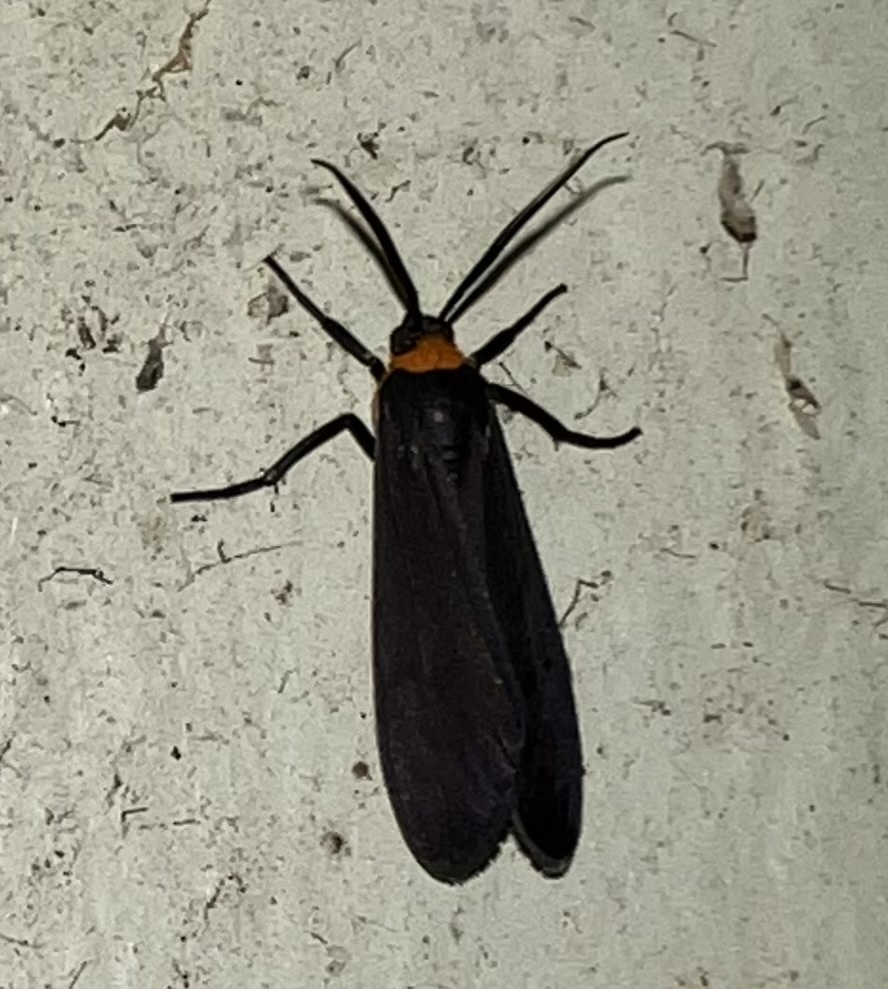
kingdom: Animalia
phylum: Arthropoda
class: Insecta
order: Lepidoptera
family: Erebidae
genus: Cisseps
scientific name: Cisseps fulvicollis
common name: Yellow-collared scape moth
